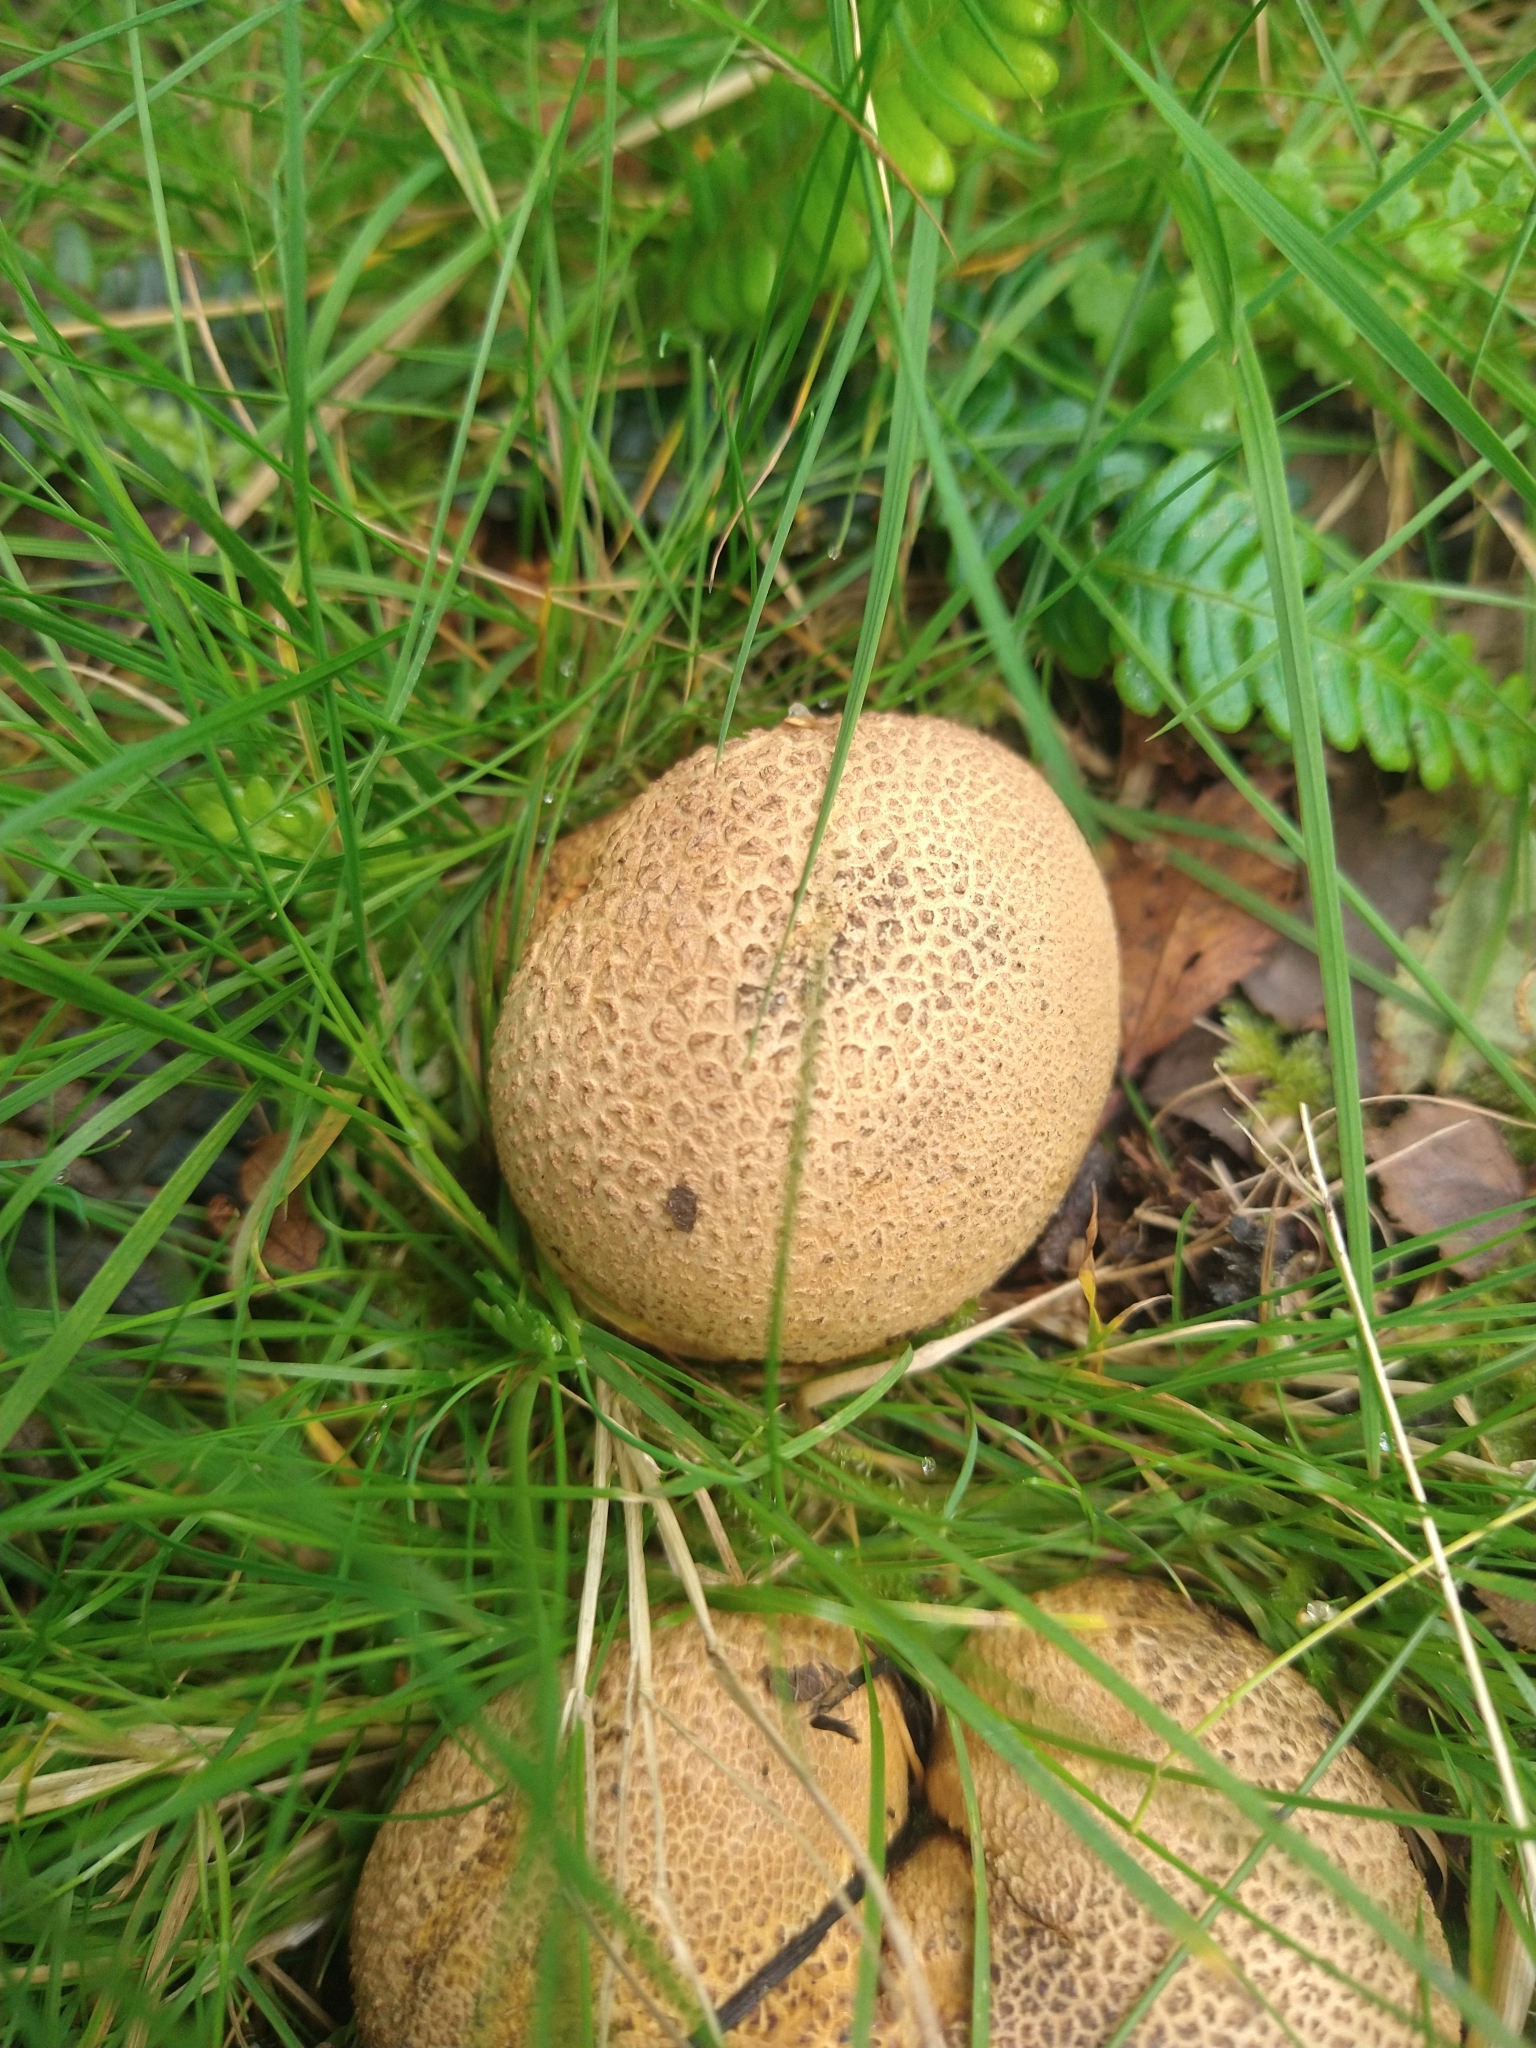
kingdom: Fungi
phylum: Basidiomycota
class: Agaricomycetes
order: Boletales
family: Sclerodermataceae
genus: Scleroderma
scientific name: Scleroderma citrinum
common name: Common earthball
